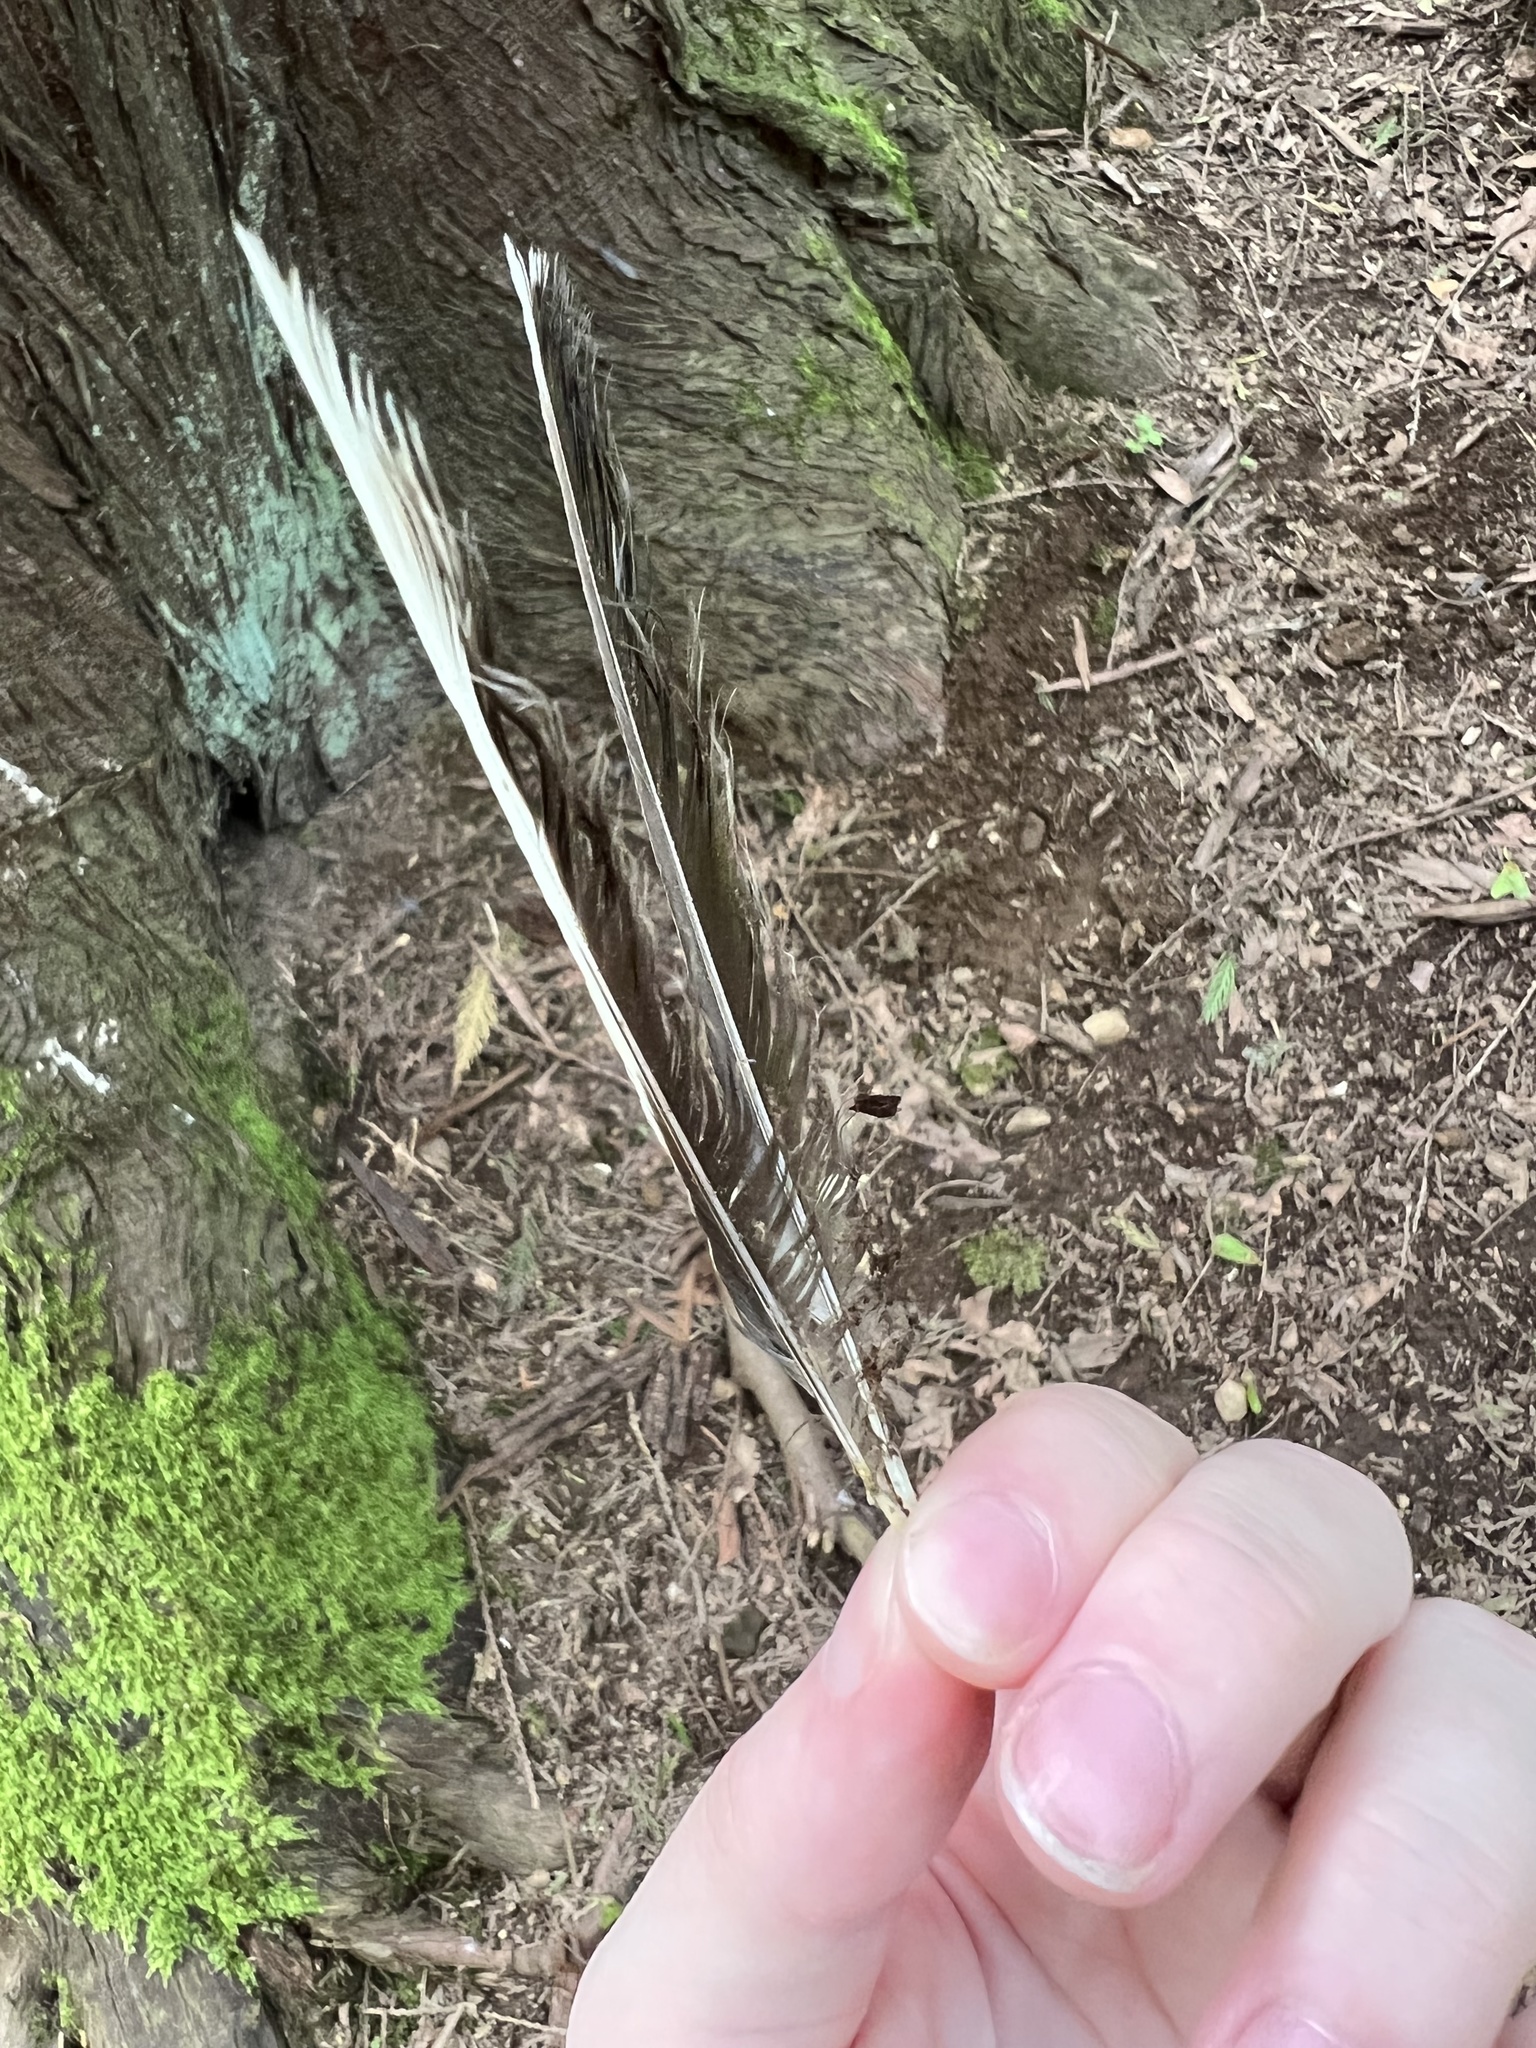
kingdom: Animalia
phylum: Chordata
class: Aves
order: Passeriformes
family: Turdidae
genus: Myadestes
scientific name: Myadestes townsendi
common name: Townsend's solitaire
